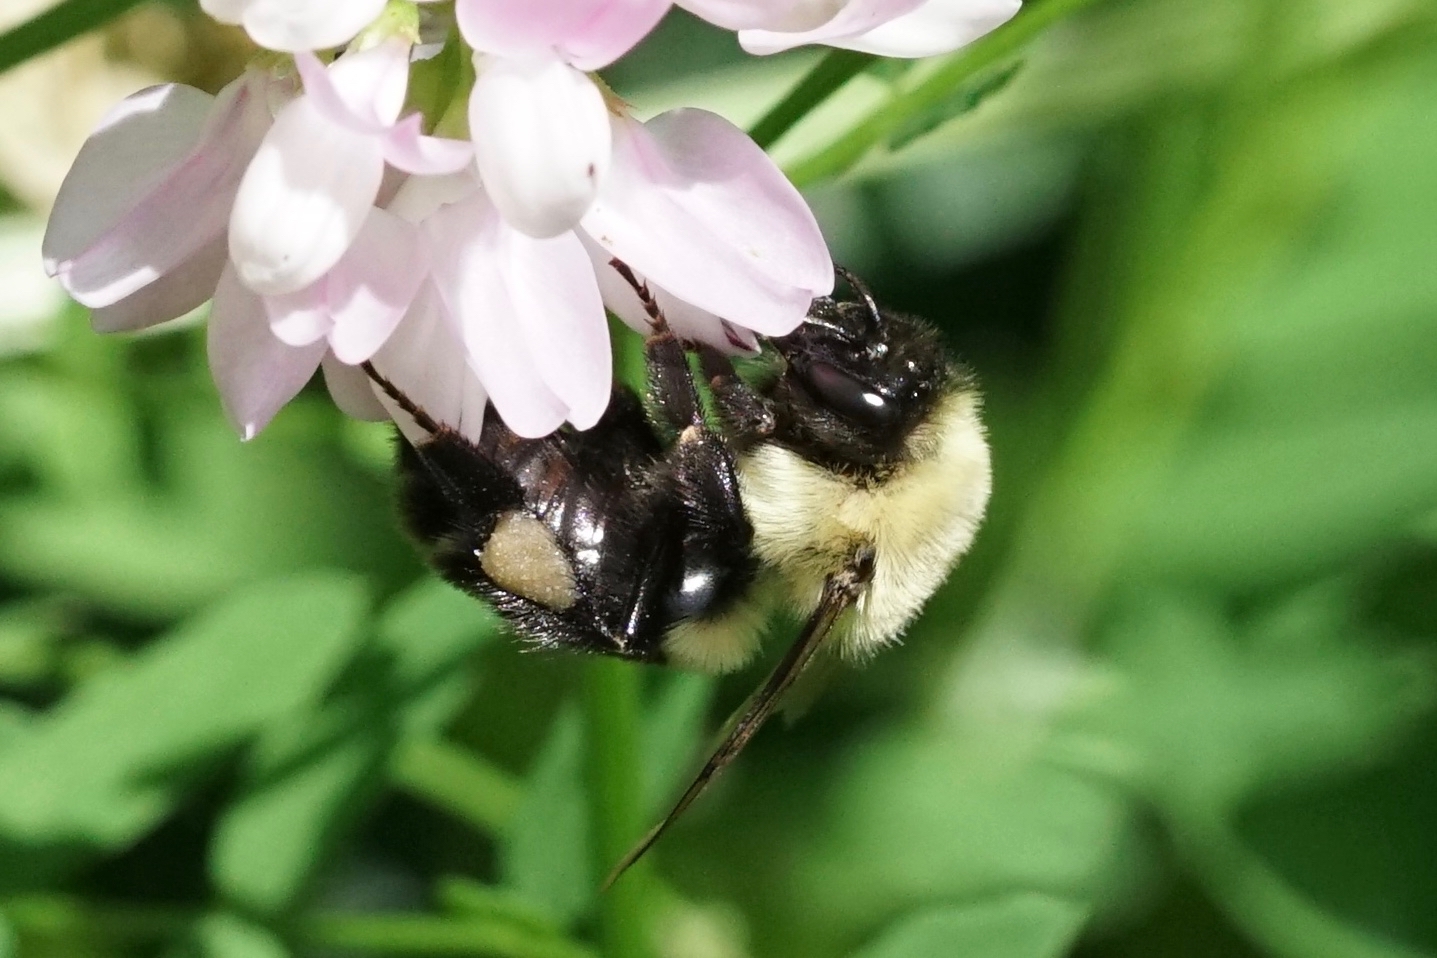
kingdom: Animalia
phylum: Arthropoda
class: Insecta
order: Hymenoptera
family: Apidae
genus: Bombus
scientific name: Bombus impatiens
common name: Common eastern bumble bee
